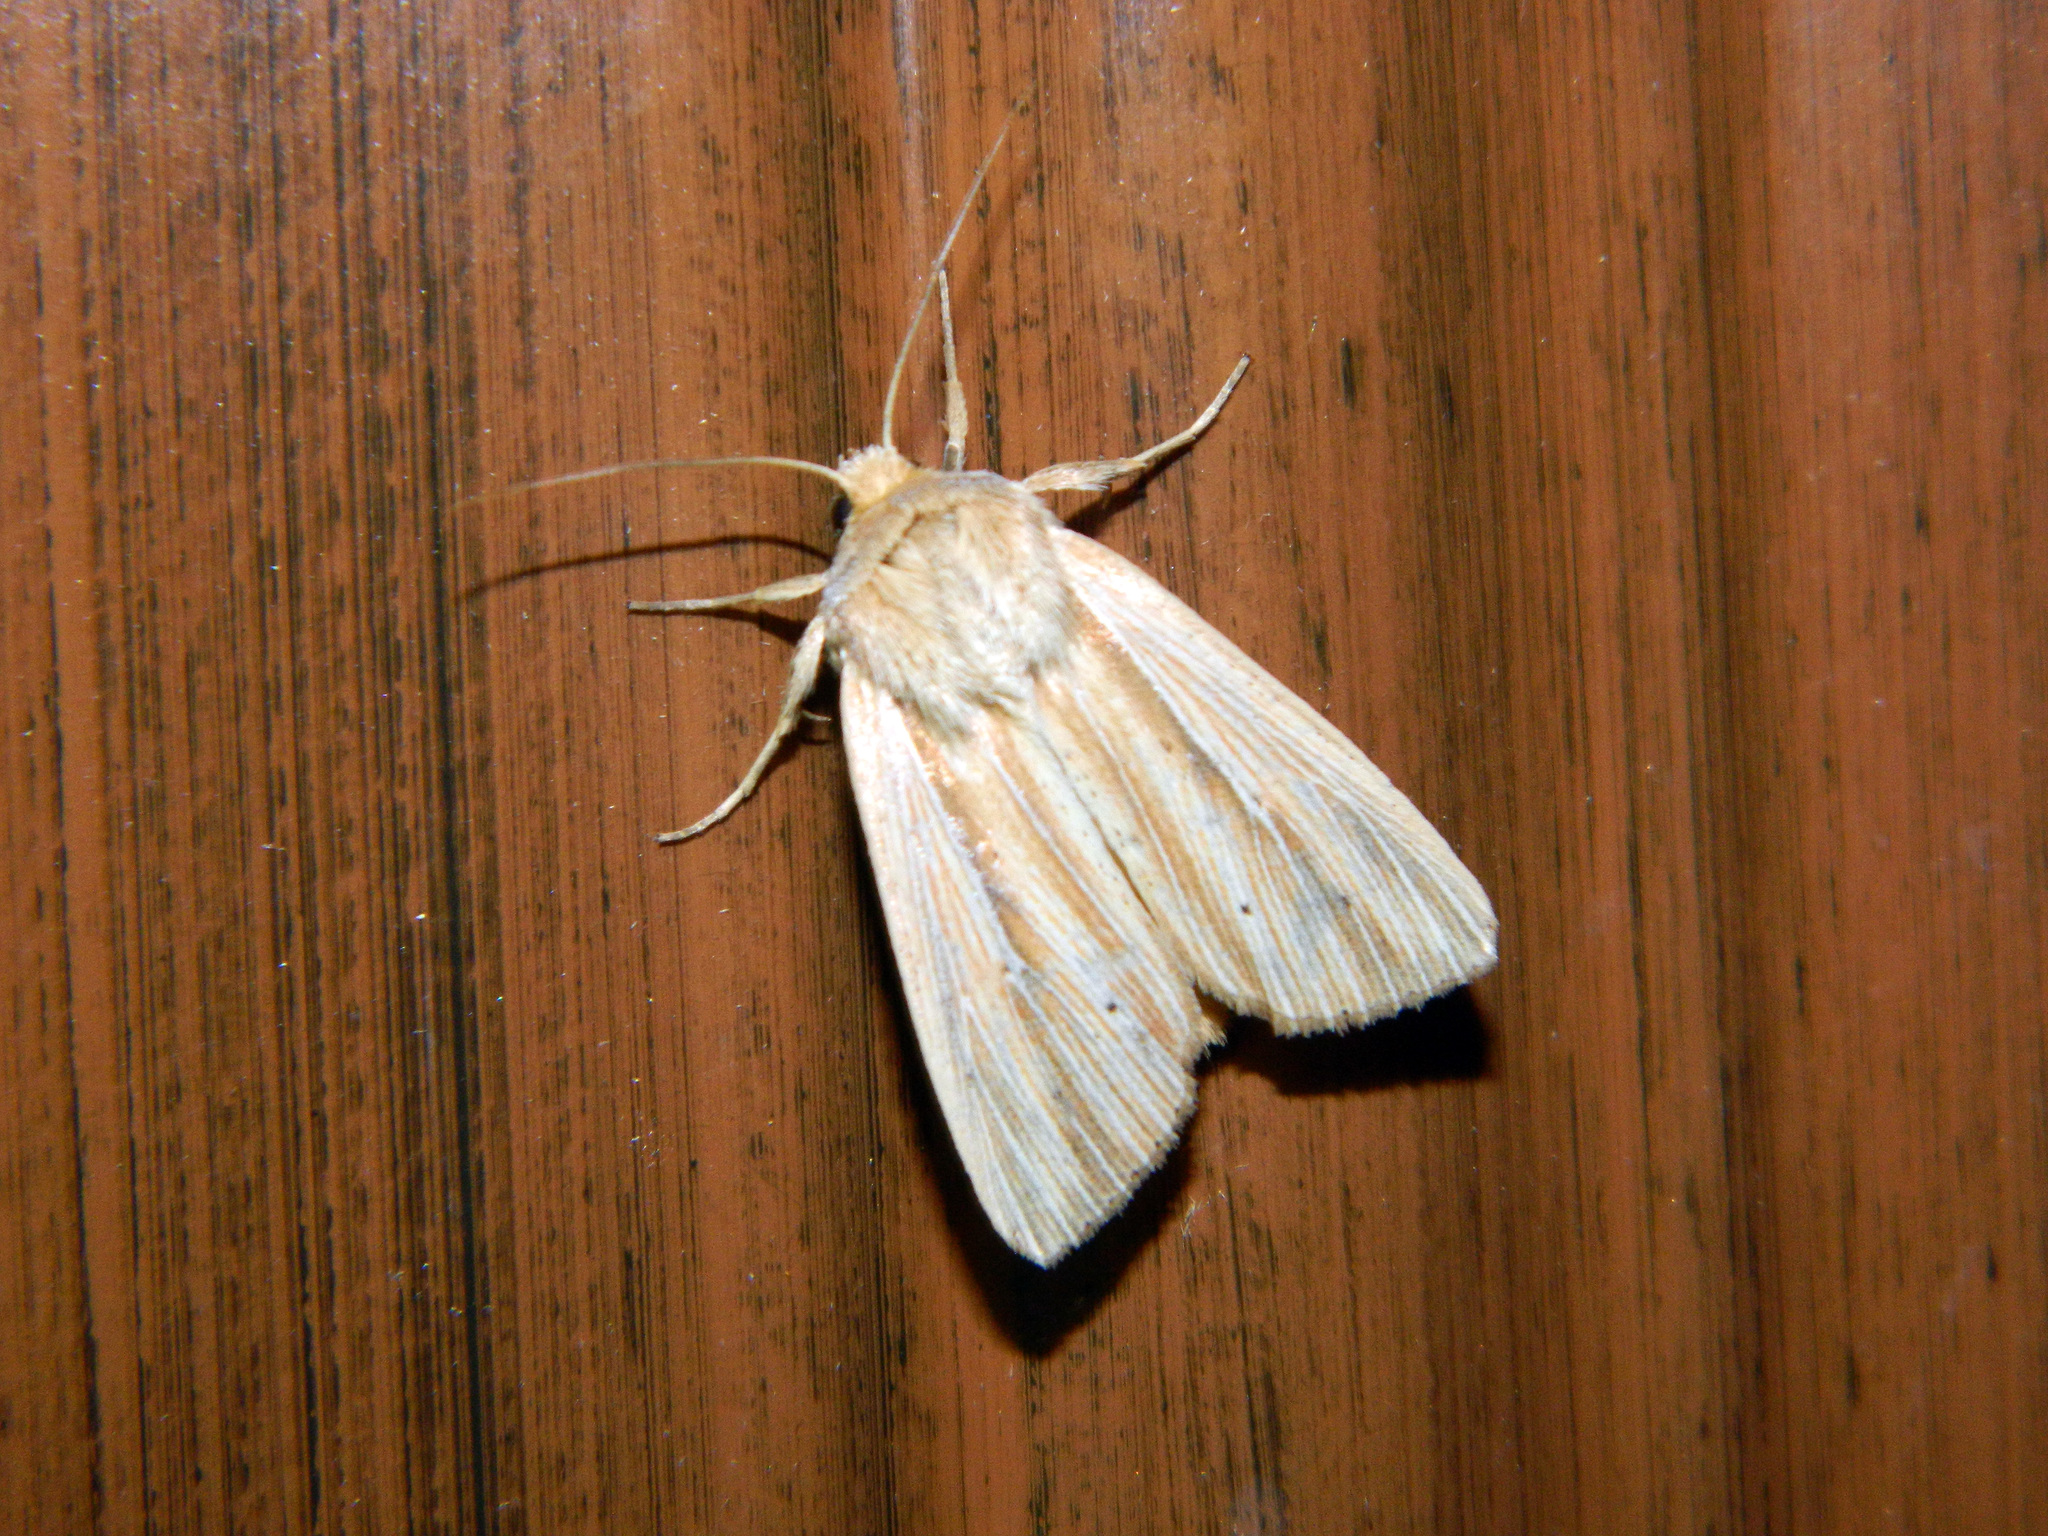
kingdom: Animalia
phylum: Arthropoda
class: Insecta
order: Lepidoptera
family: Noctuidae
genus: Mythimna
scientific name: Mythimna oxygala
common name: Lesser wainscot
